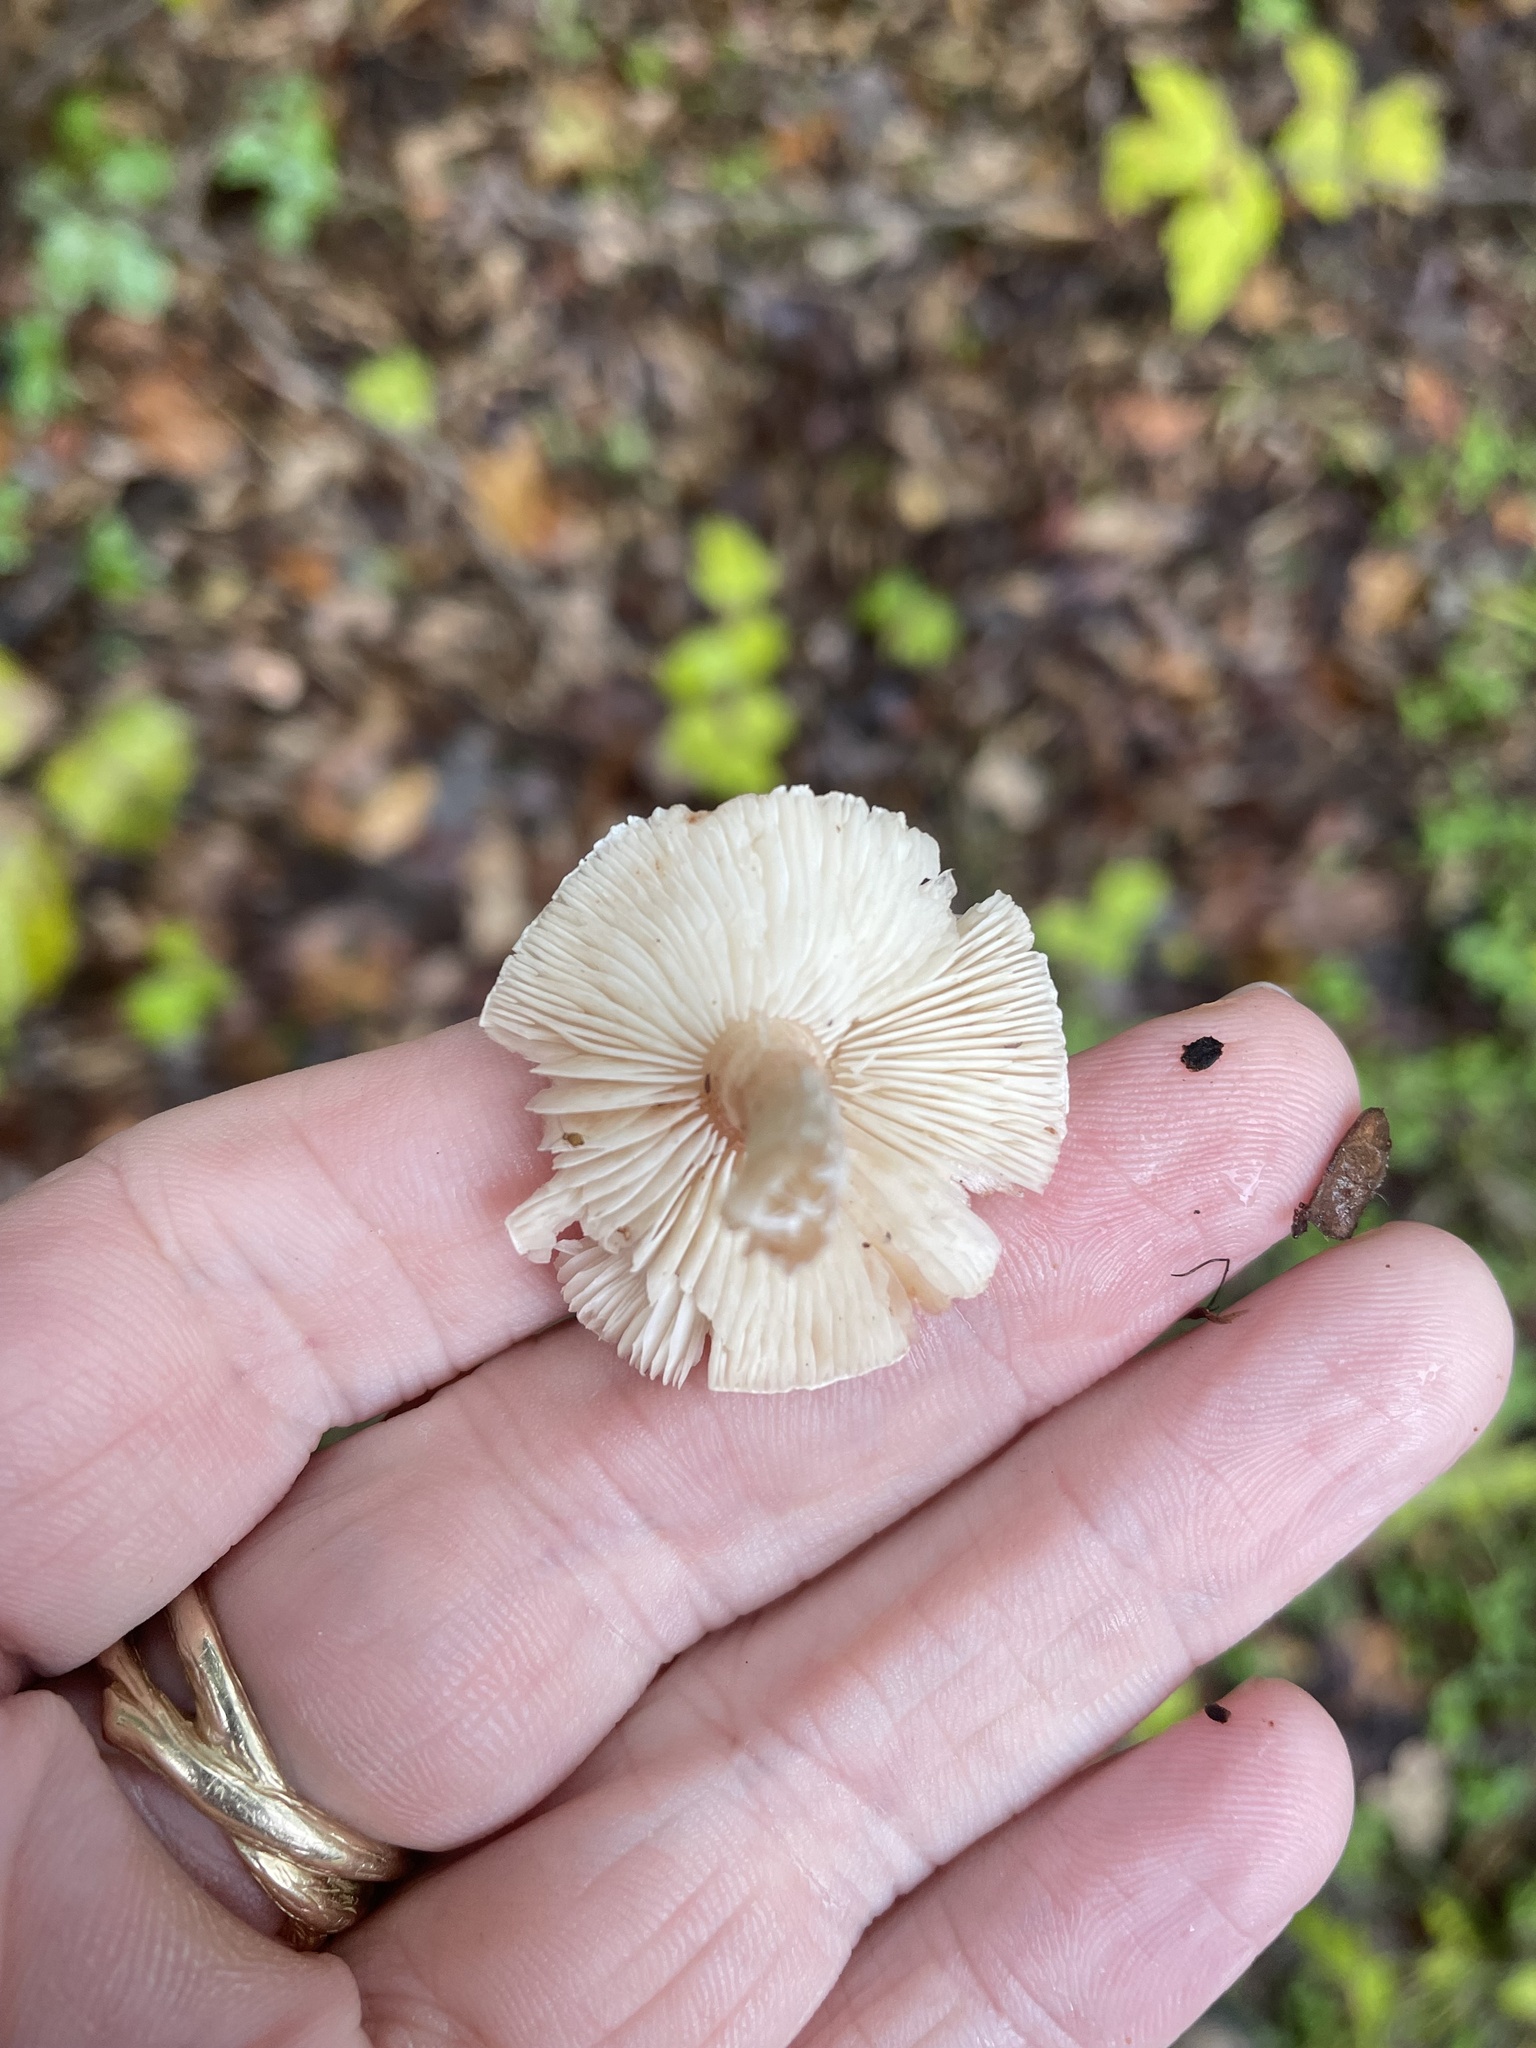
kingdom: Fungi
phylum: Basidiomycota
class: Agaricomycetes
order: Agaricales
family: Agaricaceae
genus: Leucoagaricus
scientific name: Leucoagaricus rubrotinctus
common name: Ruby dapperling
